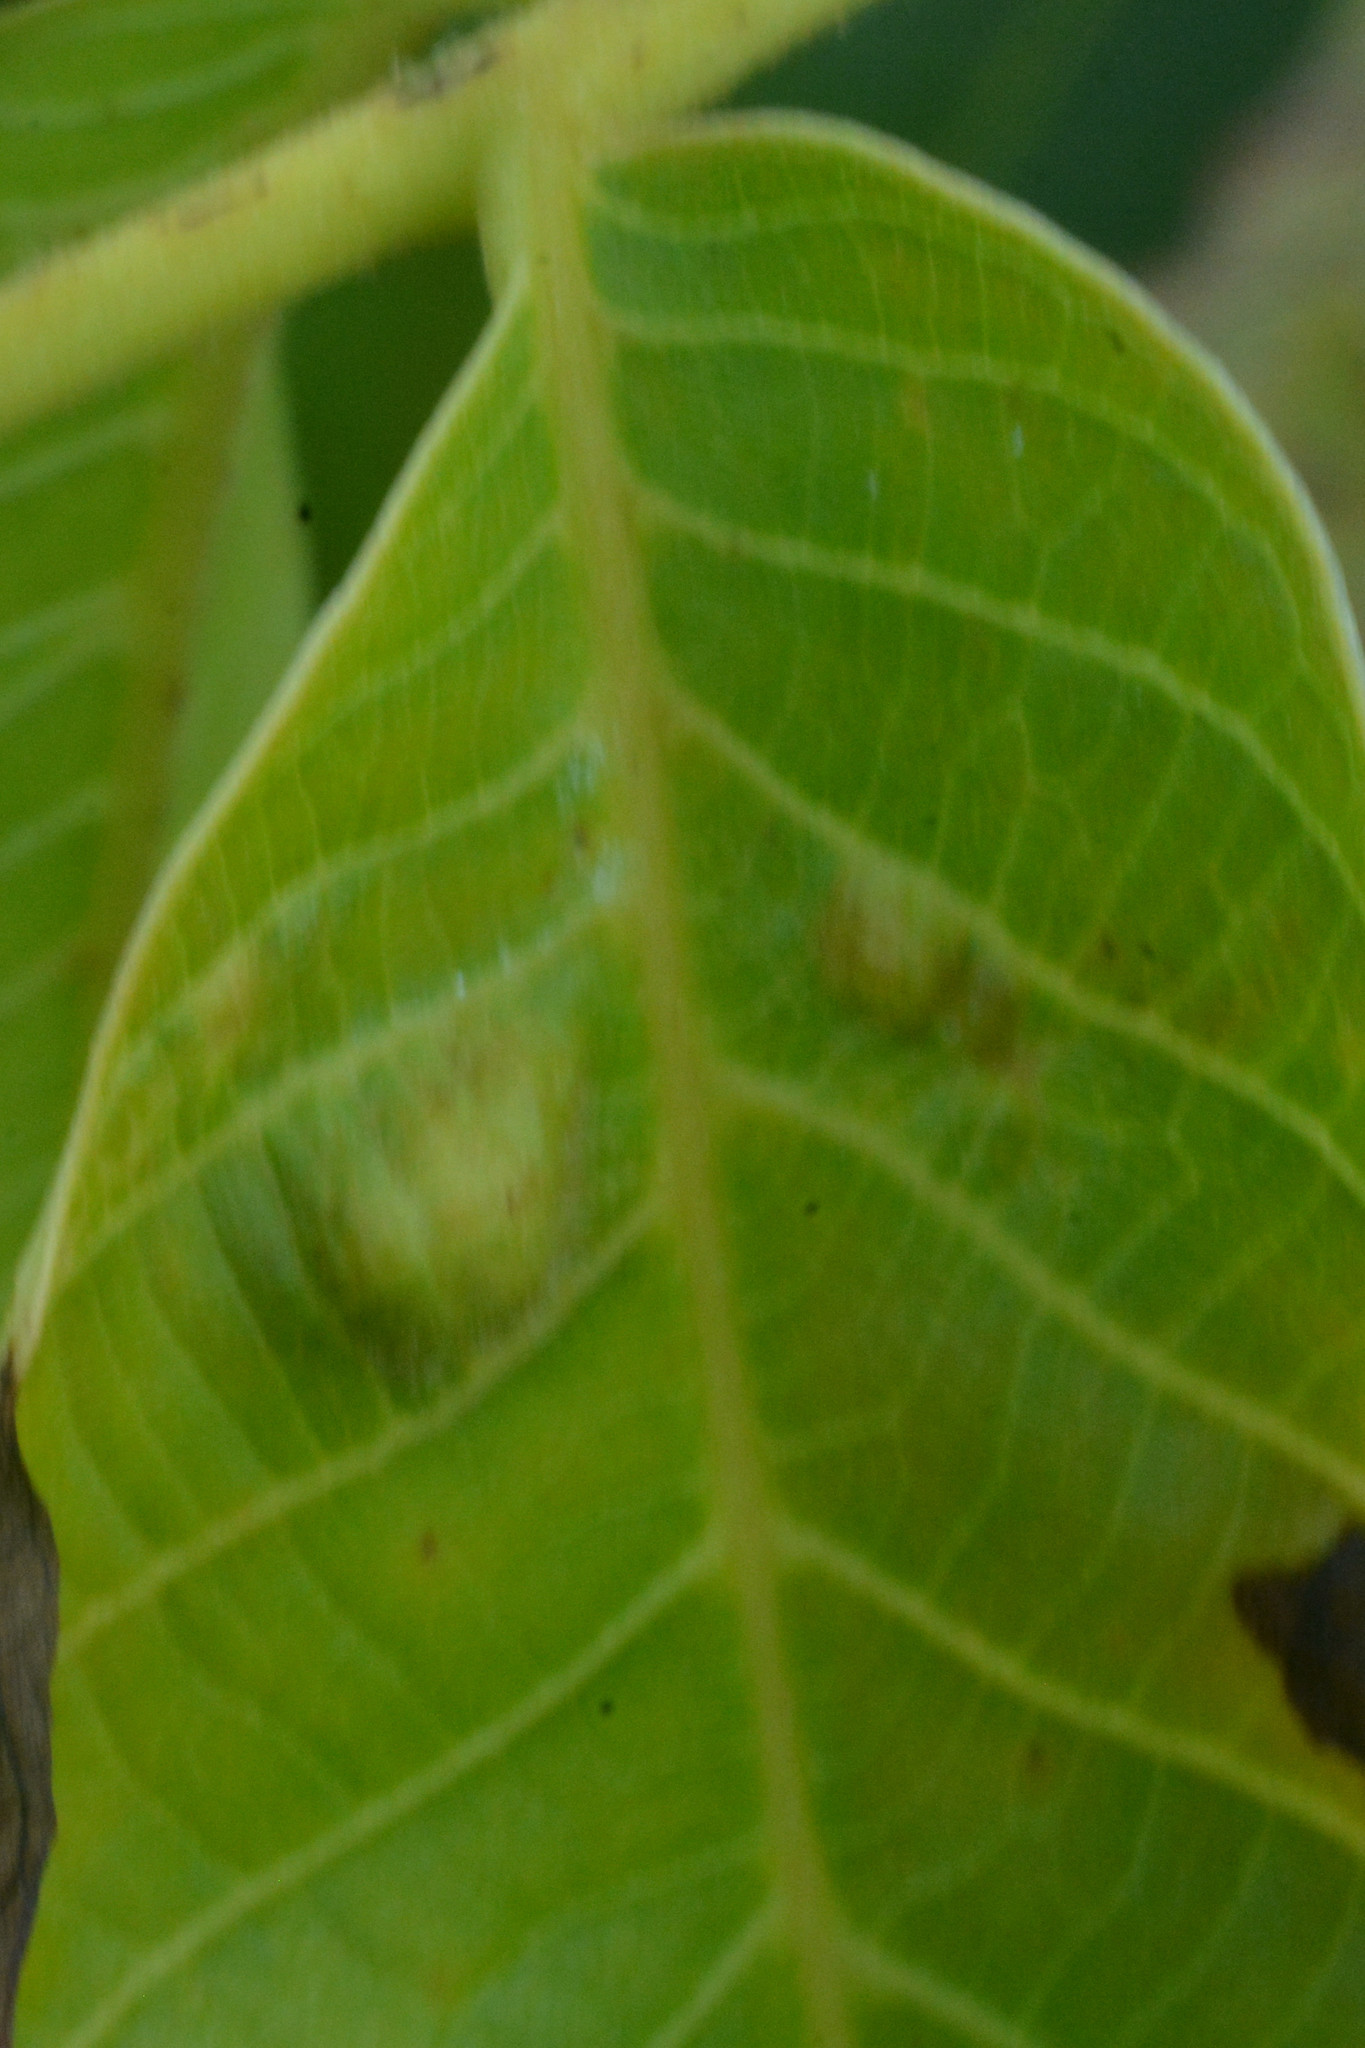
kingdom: Animalia
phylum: Arthropoda
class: Arachnida
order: Trombidiformes
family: Eriophyidae
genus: Aceria
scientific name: Aceria erinea
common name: Persian walnut erineum mite
